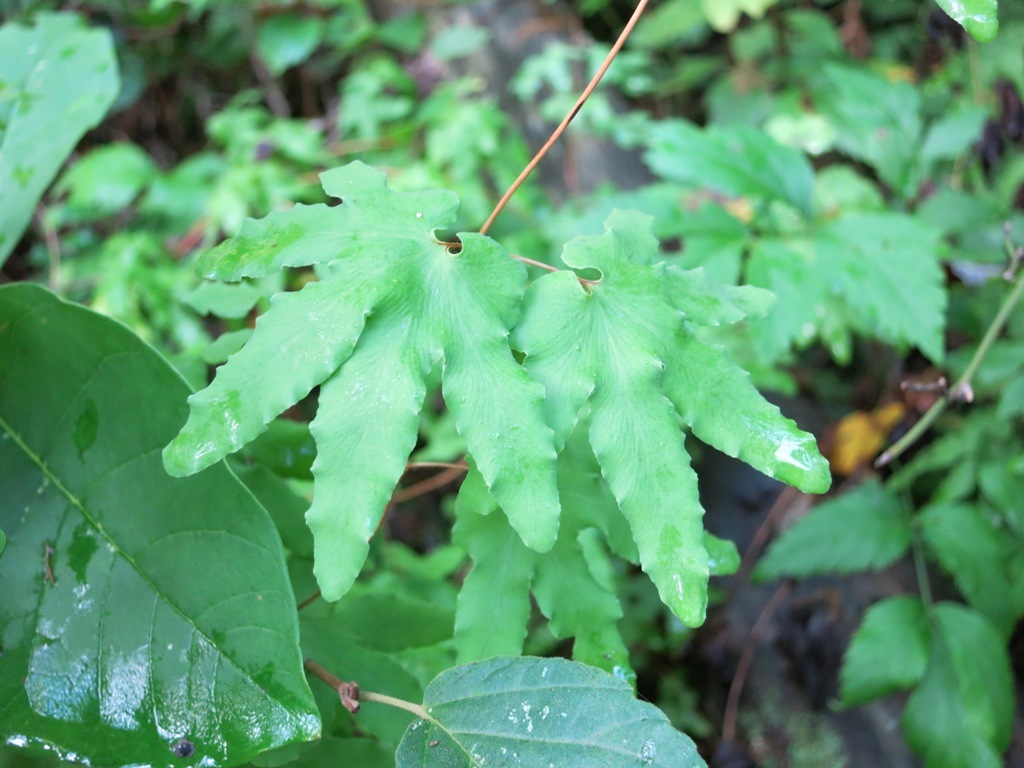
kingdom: Plantae
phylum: Tracheophyta
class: Polypodiopsida
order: Schizaeales
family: Lygodiaceae
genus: Lygodium
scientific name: Lygodium palmatum
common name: American climbing fern
